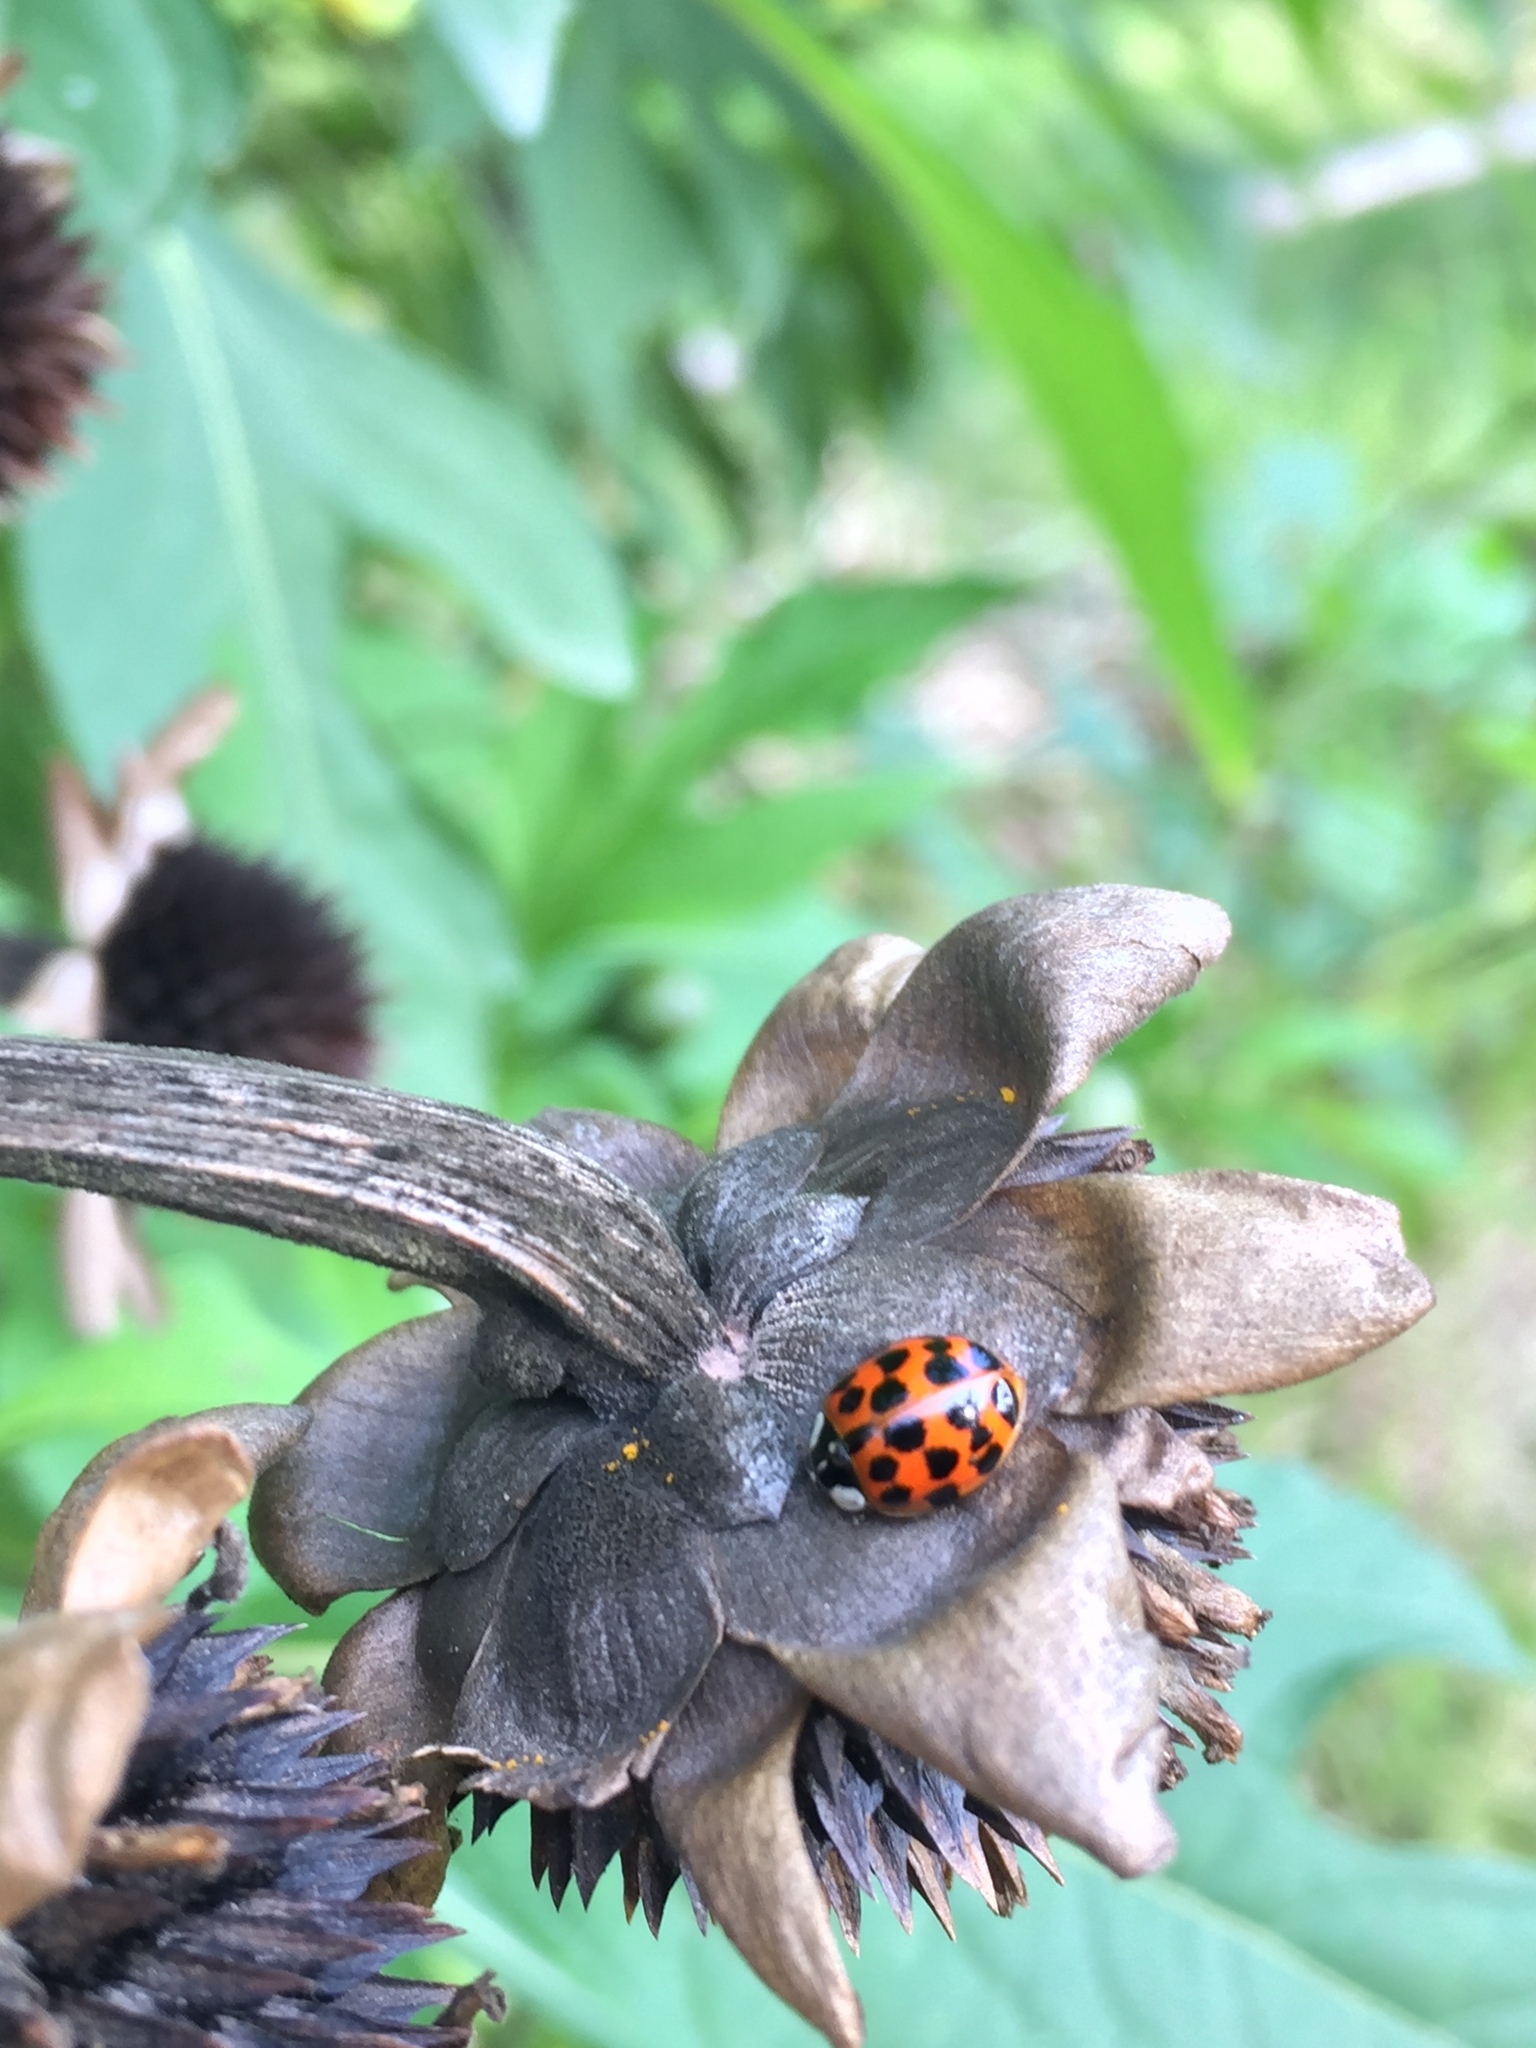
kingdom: Animalia
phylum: Arthropoda
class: Insecta
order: Coleoptera
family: Coccinellidae
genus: Harmonia
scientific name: Harmonia axyridis
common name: Harlequin ladybird
